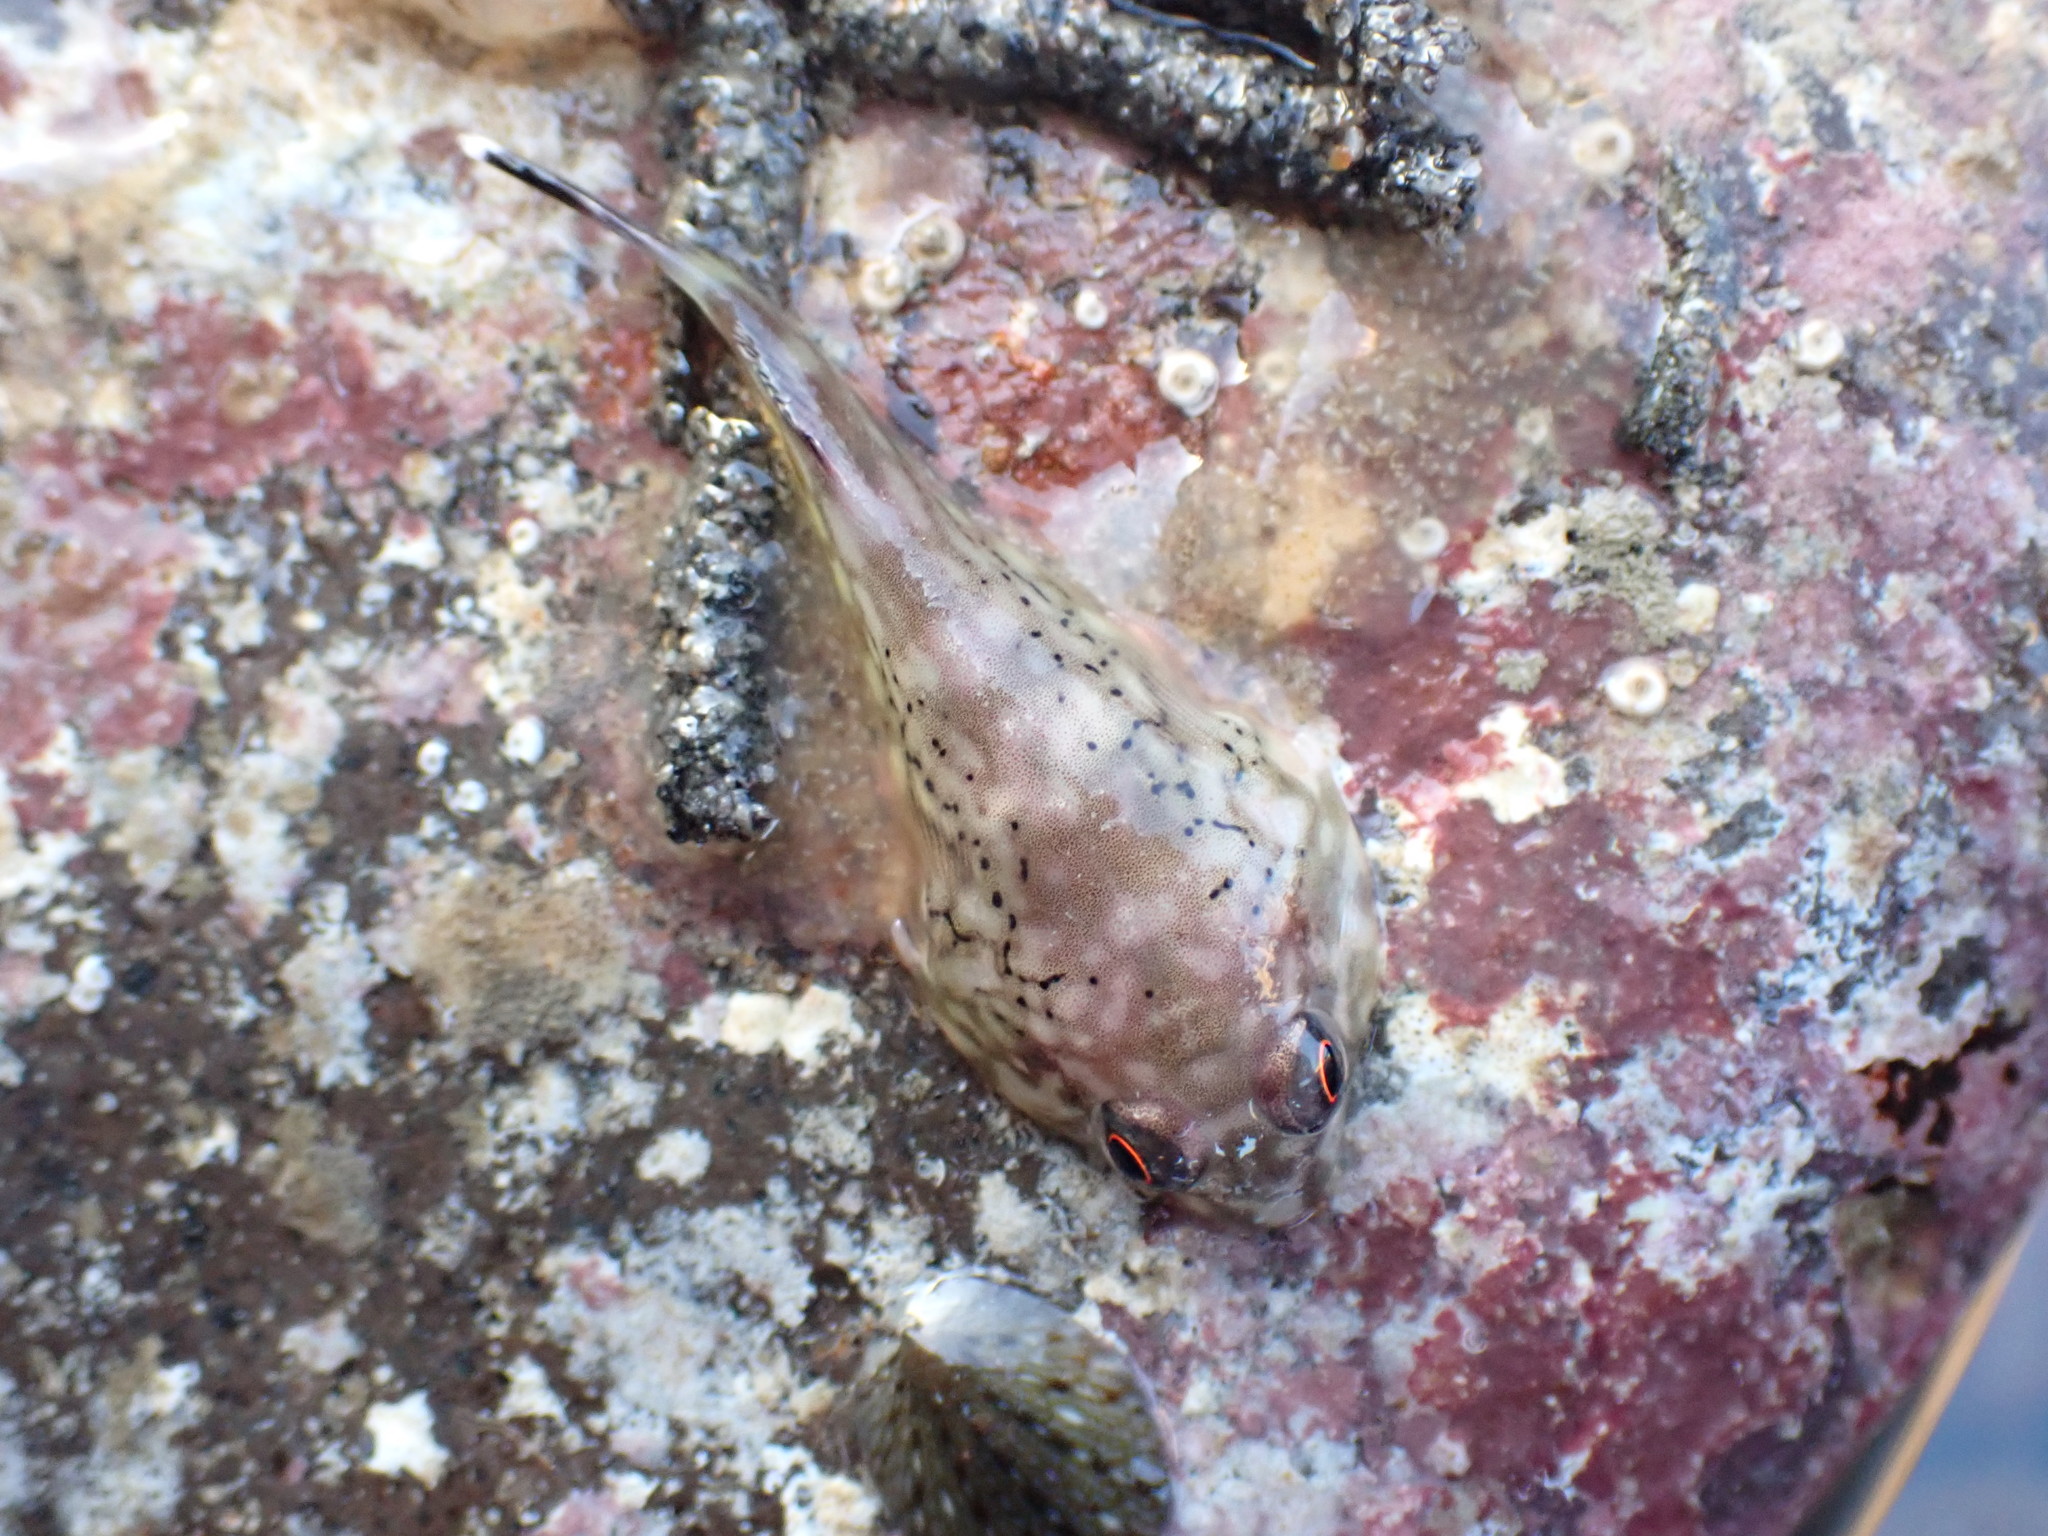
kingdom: Animalia
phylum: Chordata
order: Gobiesociformes
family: Gobiesocidae
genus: Diplocrepis
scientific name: Diplocrepis puniceus
